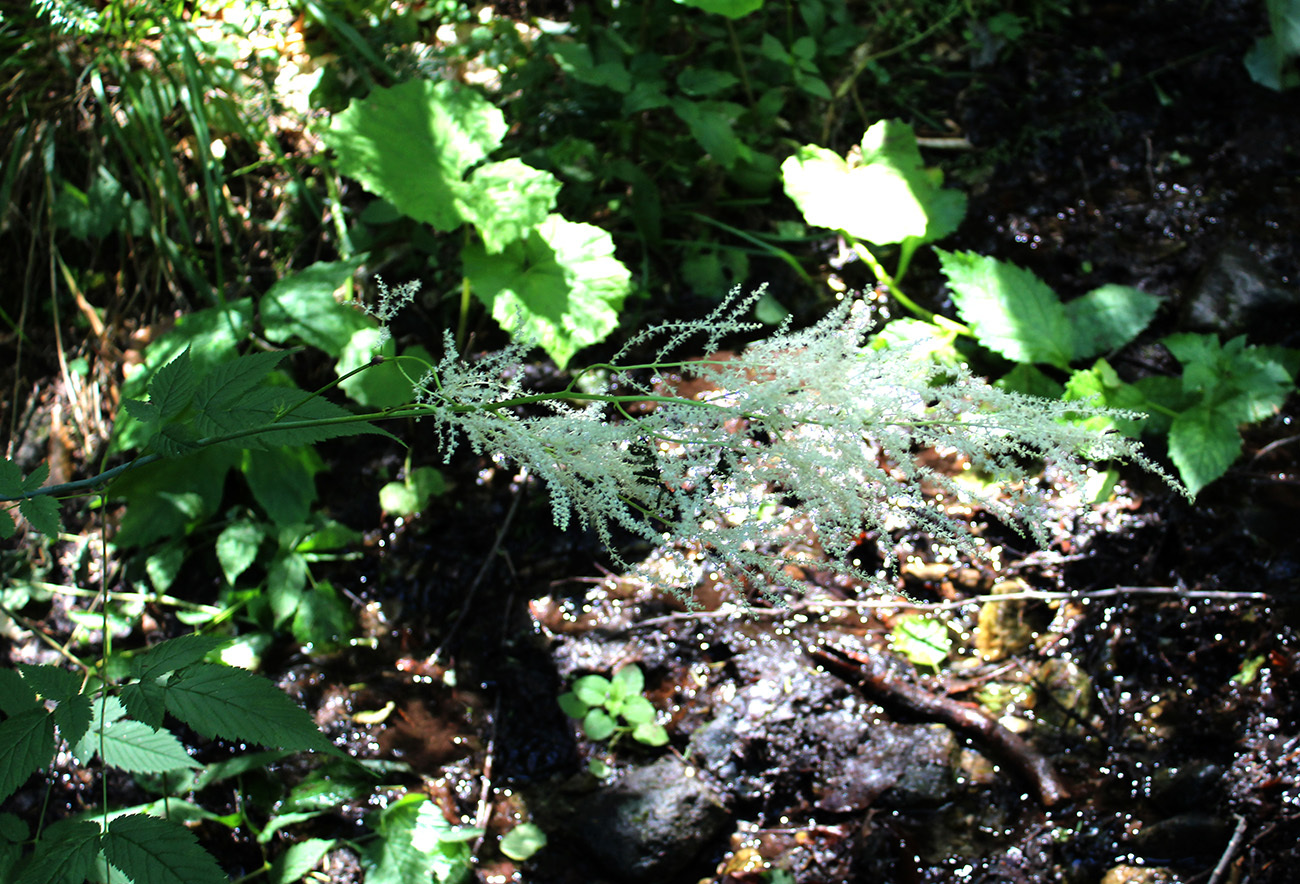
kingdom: Plantae
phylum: Tracheophyta
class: Magnoliopsida
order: Rosales
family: Rosaceae
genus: Aruncus
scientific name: Aruncus sylvester
